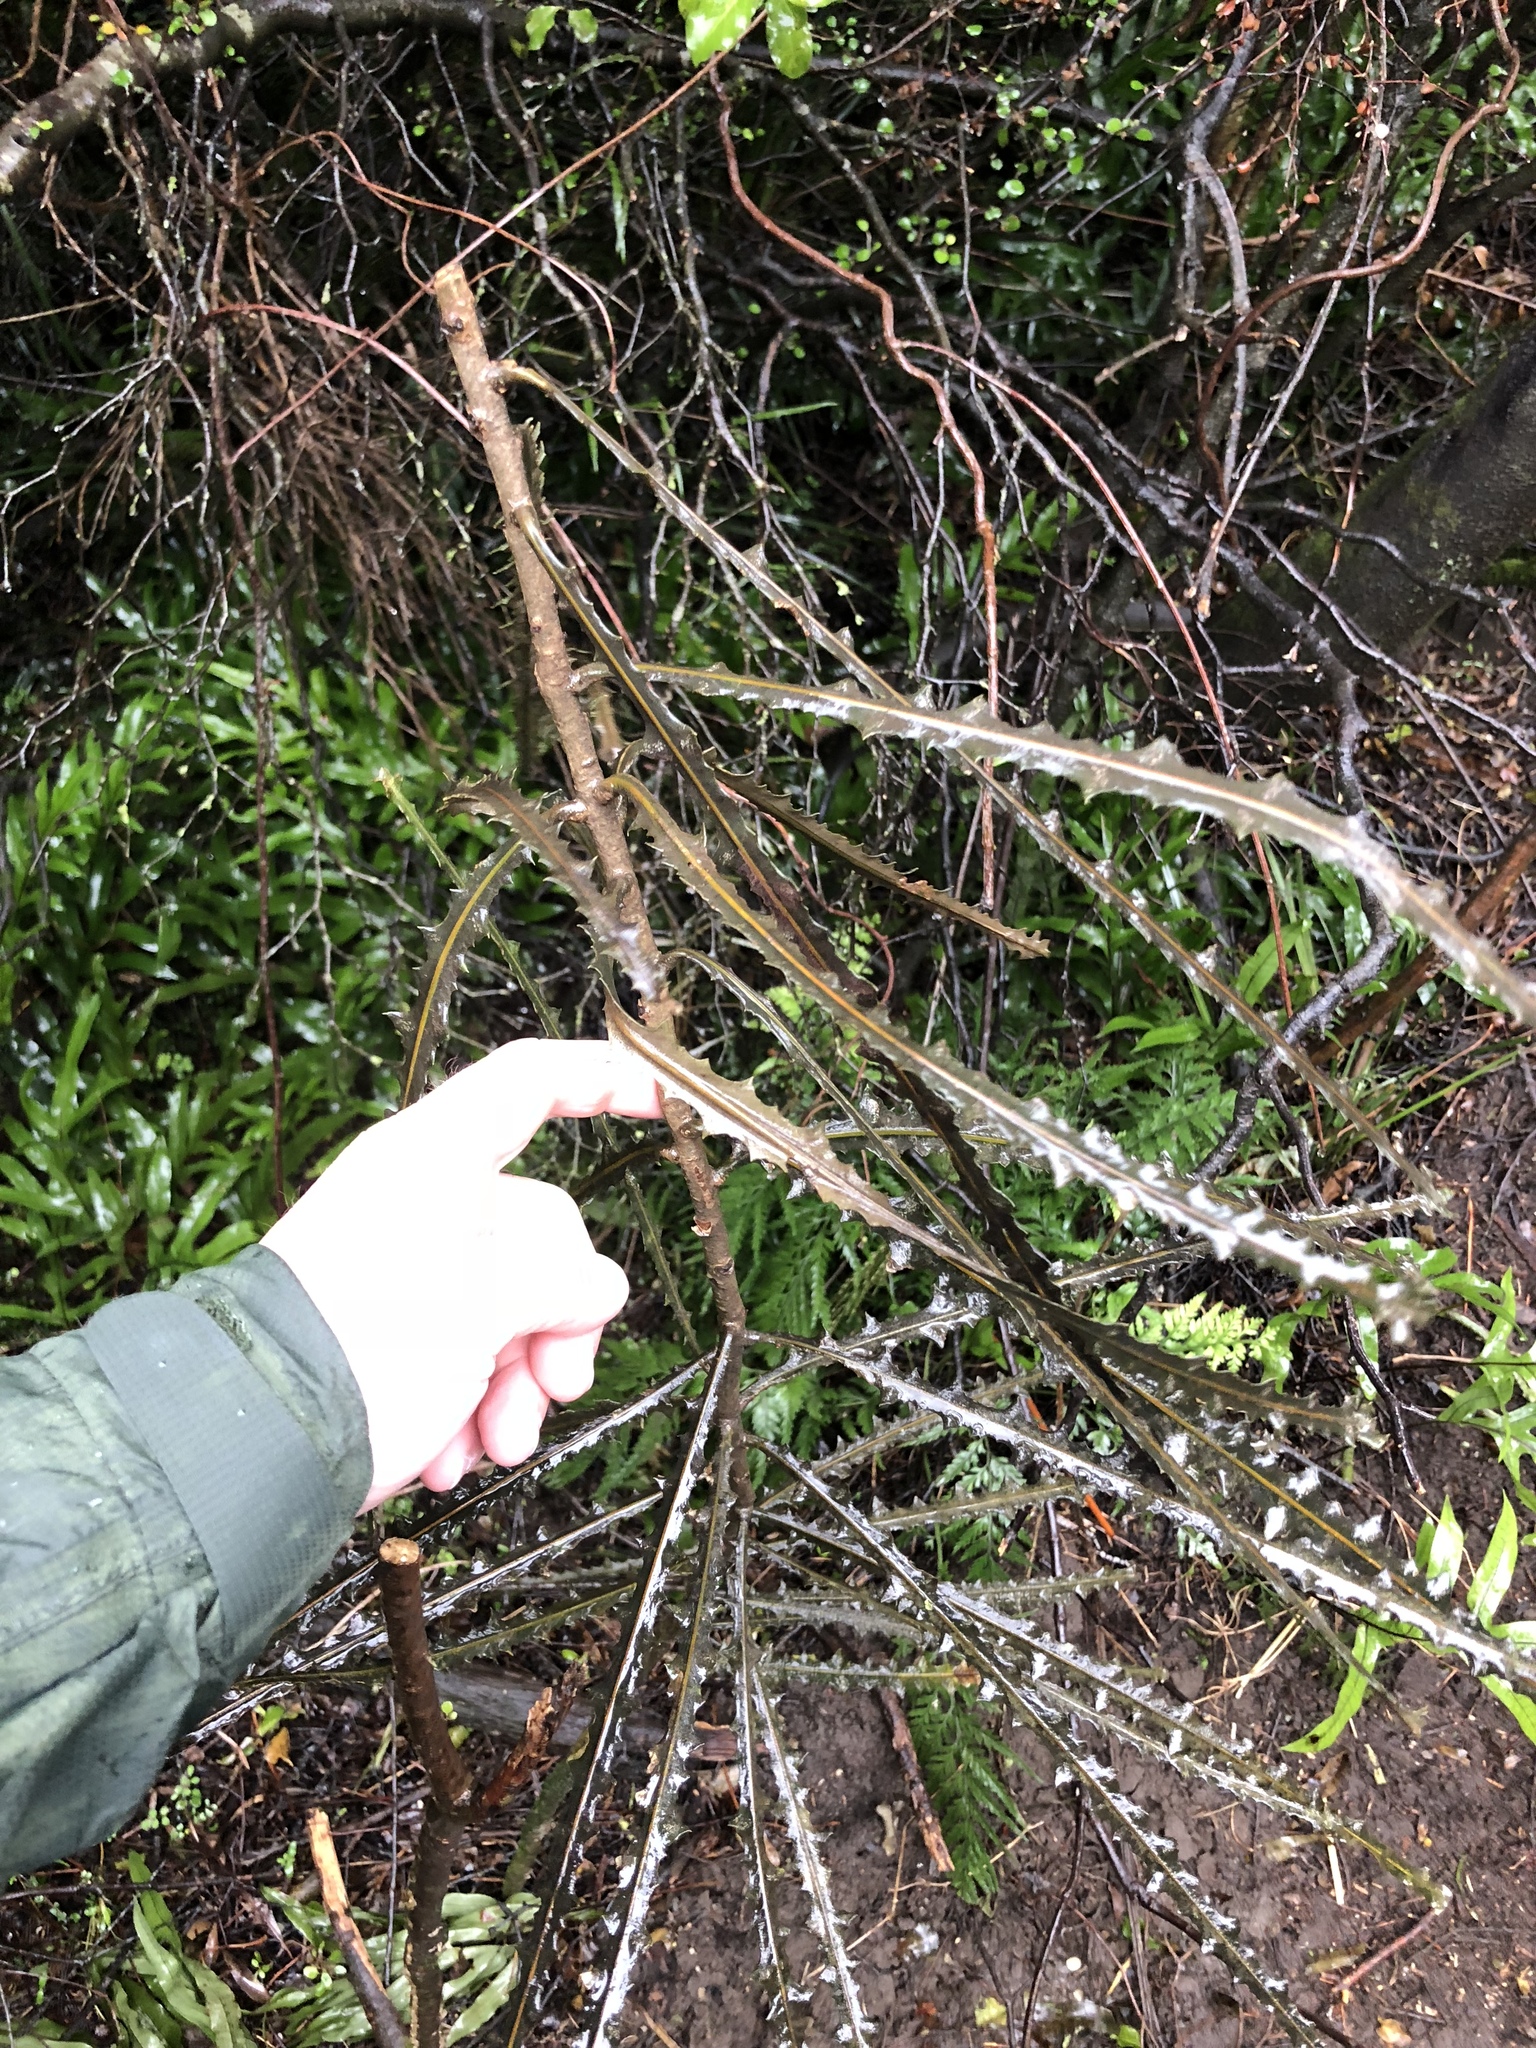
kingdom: Plantae
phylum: Tracheophyta
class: Magnoliopsida
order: Apiales
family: Araliaceae
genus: Pseudopanax
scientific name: Pseudopanax ferox
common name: Fierce lancewood
